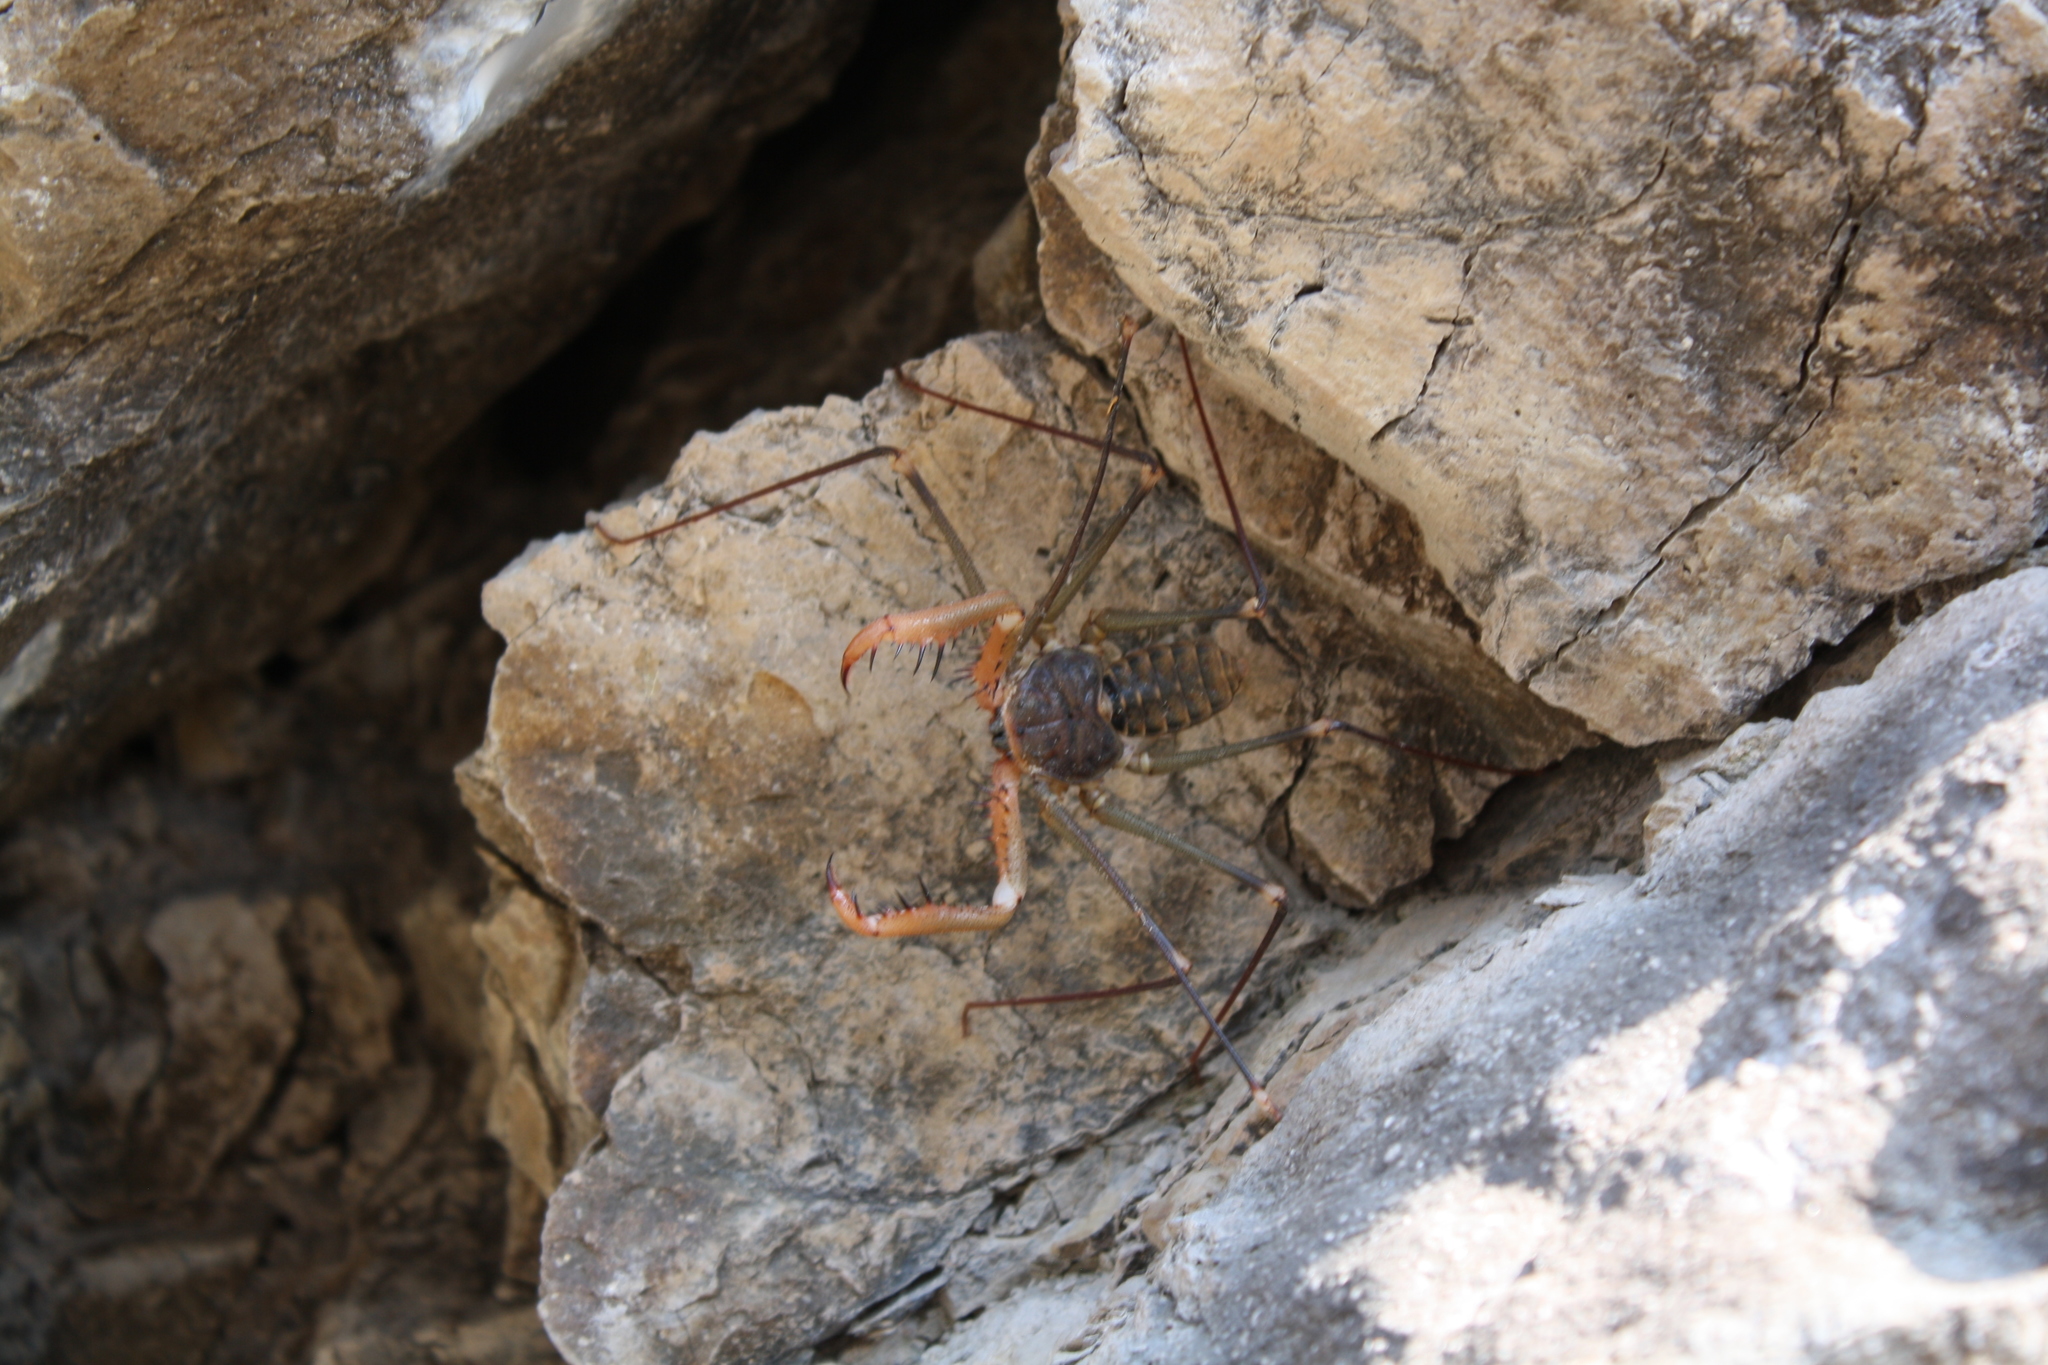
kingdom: Animalia
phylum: Arthropoda
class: Arachnida
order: Amblypygi
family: Phrynidae
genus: Acanthophrynus
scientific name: Acanthophrynus coronatus
